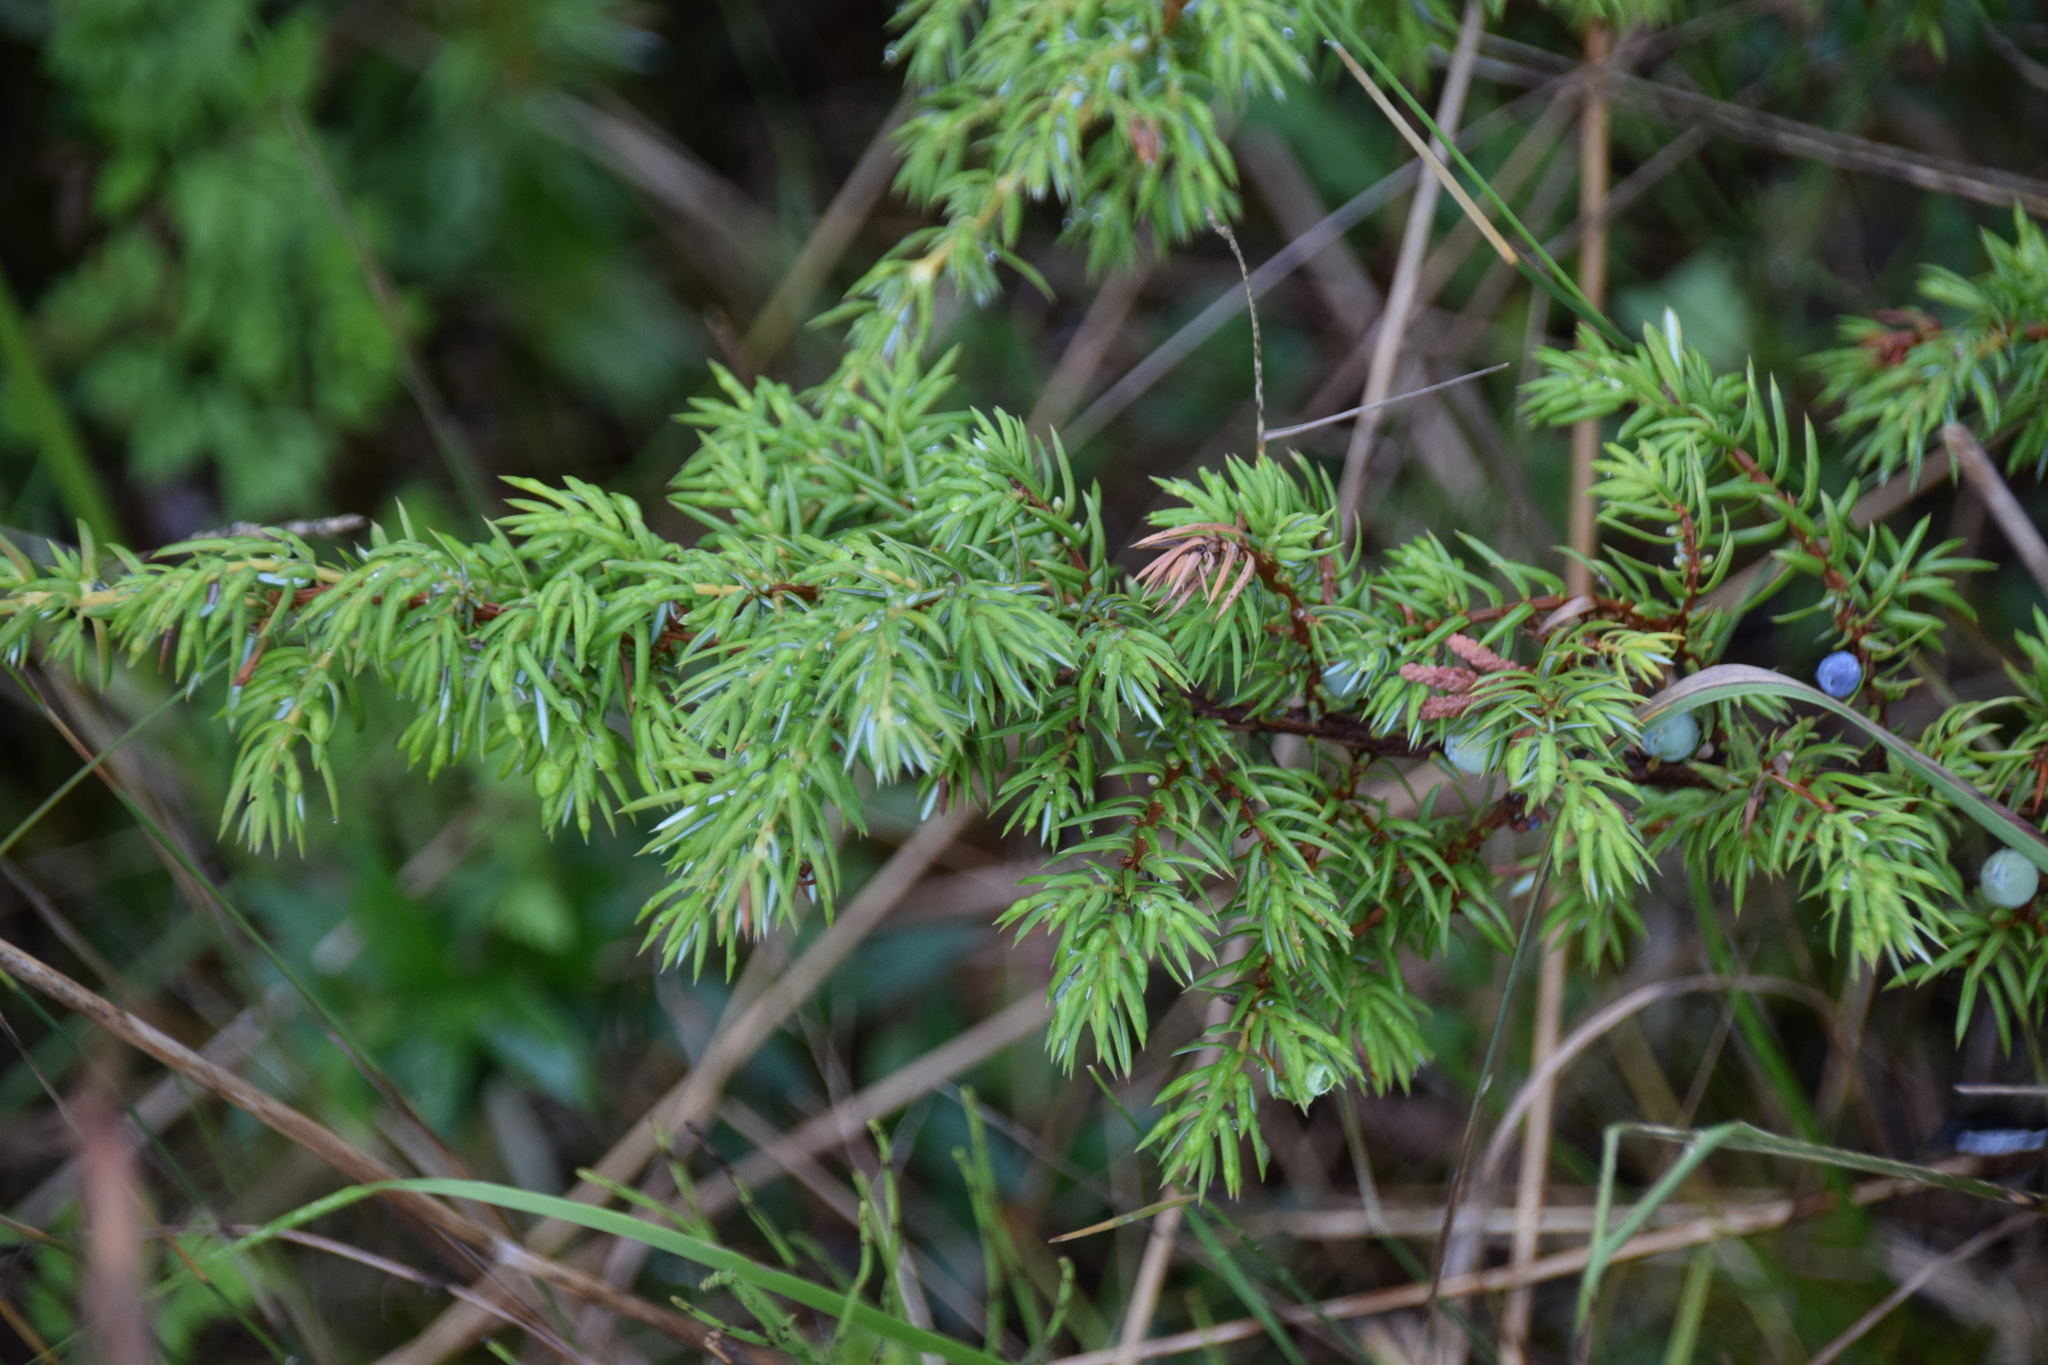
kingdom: Plantae
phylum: Tracheophyta
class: Pinopsida
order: Pinales
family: Cupressaceae
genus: Juniperus
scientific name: Juniperus communis
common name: Common juniper
